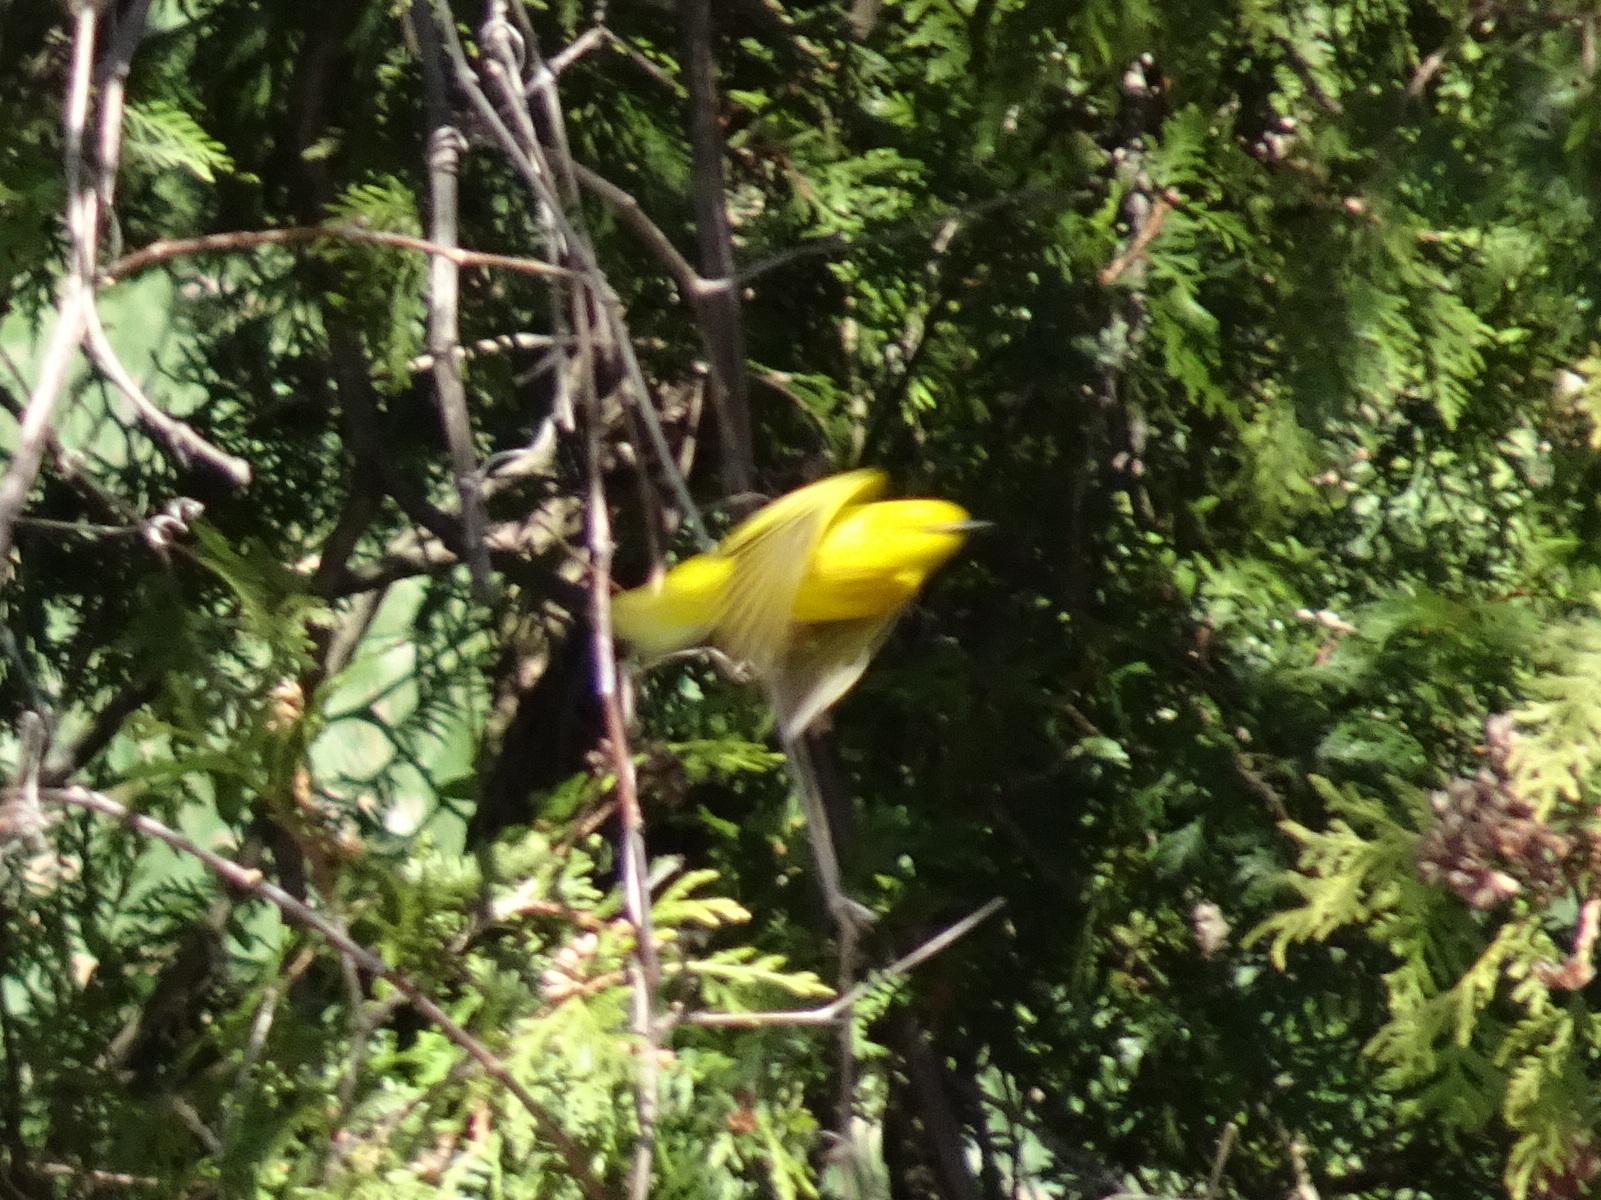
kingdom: Animalia
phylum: Chordata
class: Aves
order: Passeriformes
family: Parulidae
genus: Setophaga
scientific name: Setophaga petechia
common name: Yellow warbler
